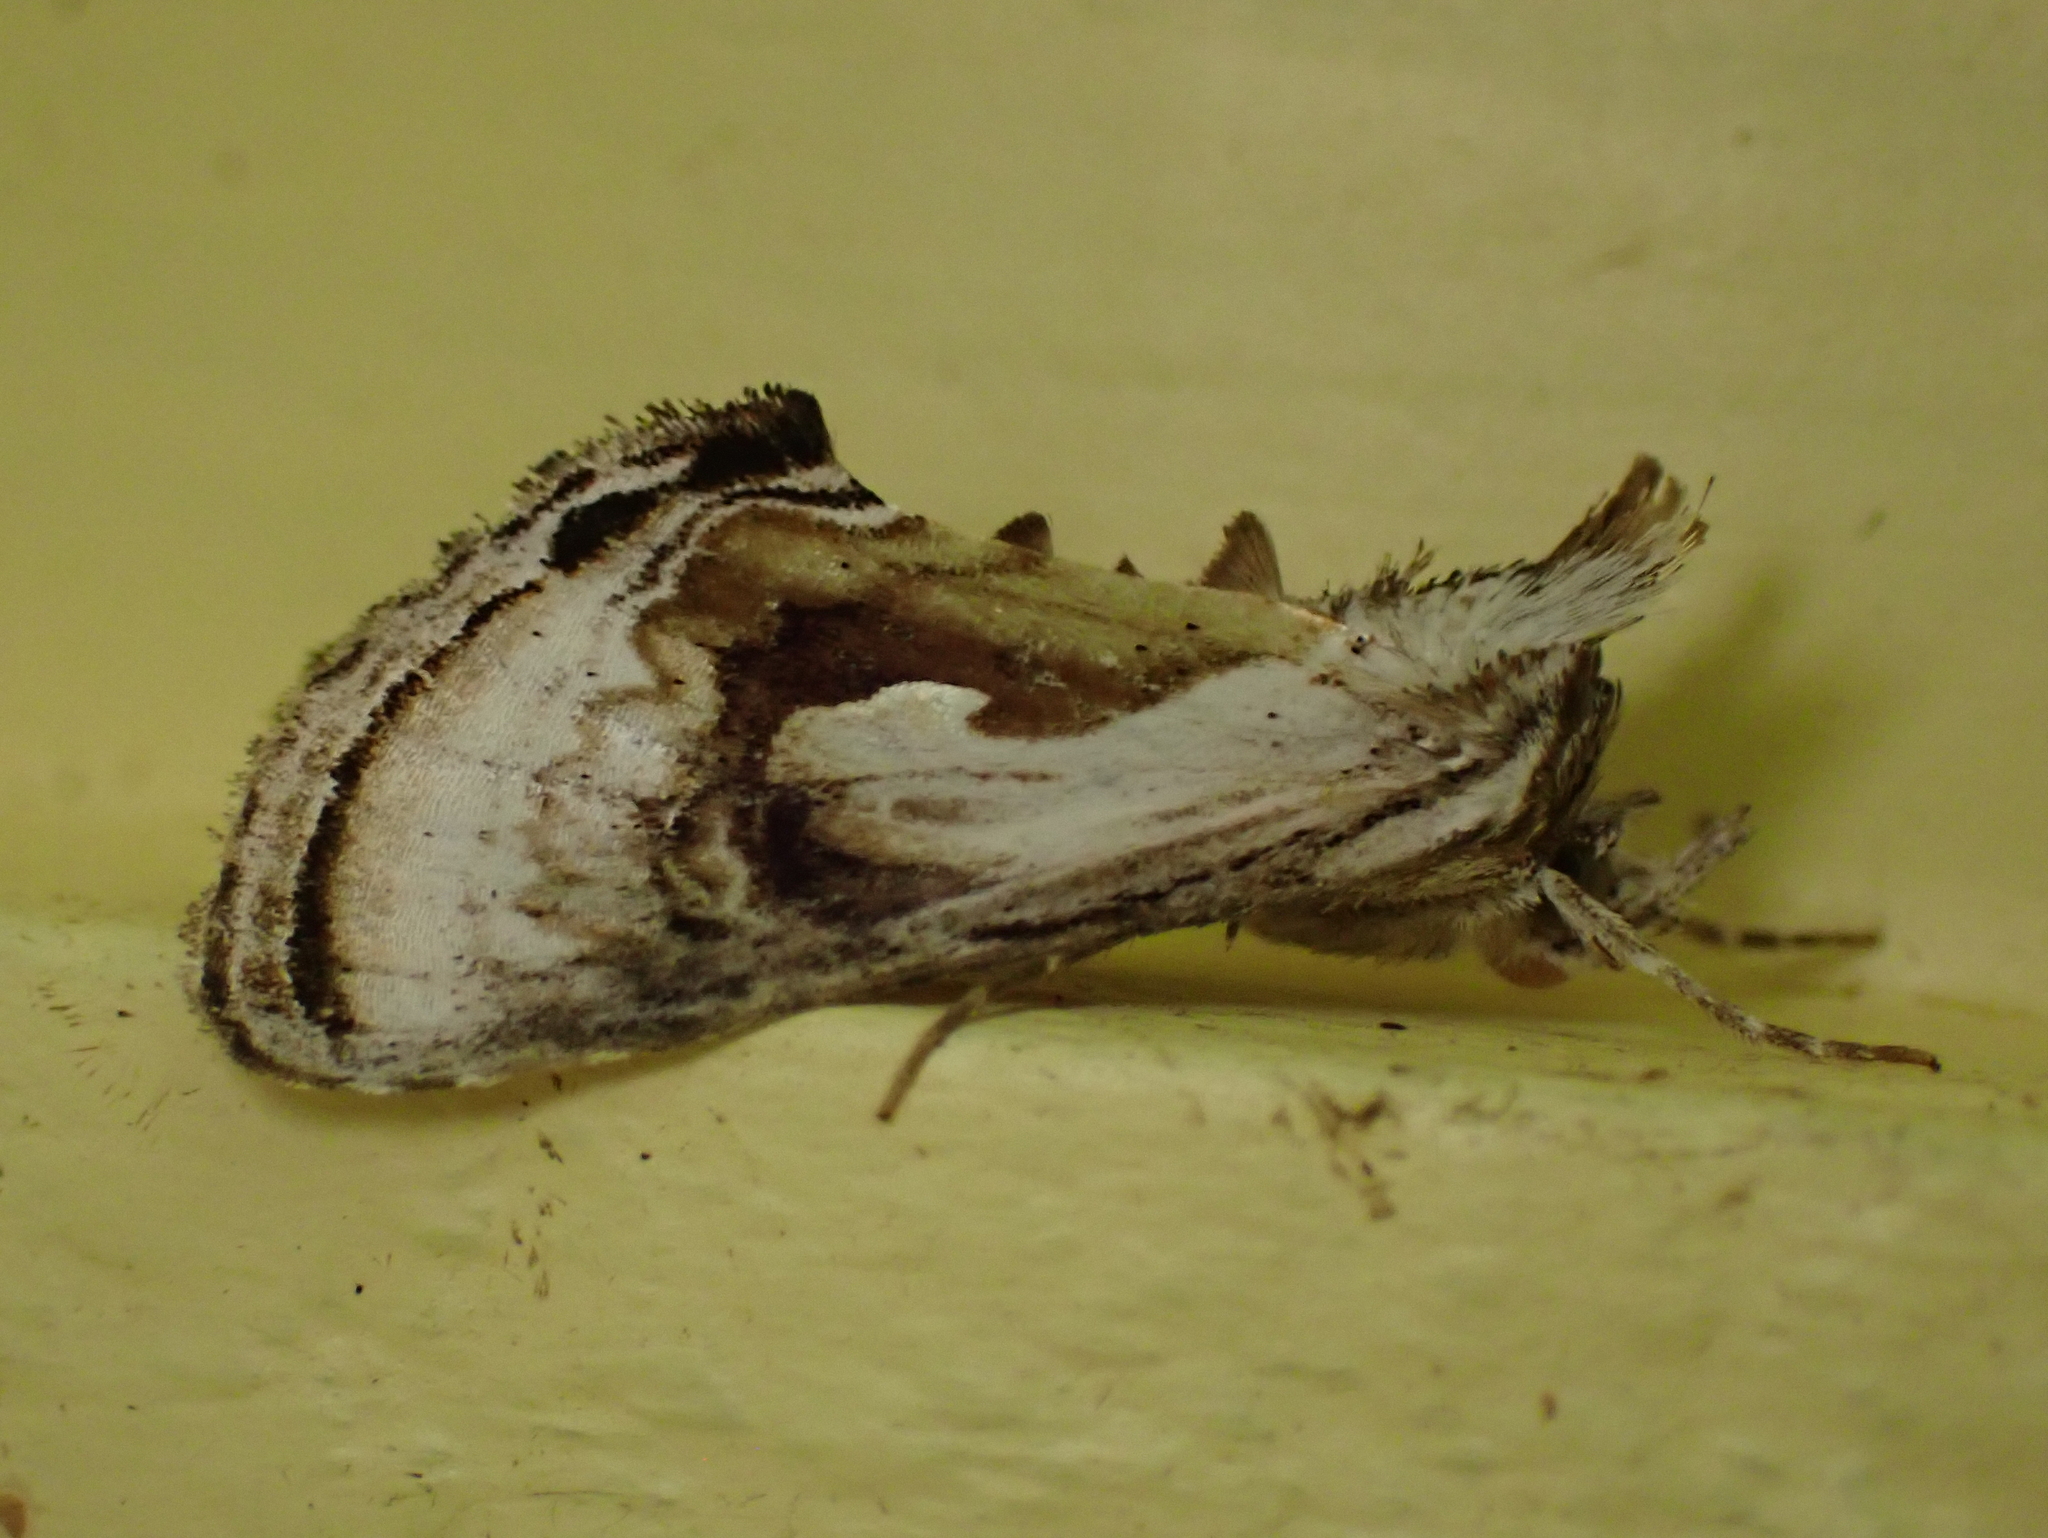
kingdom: Animalia
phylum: Arthropoda
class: Insecta
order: Lepidoptera
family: Noctuidae
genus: Chrysanympha
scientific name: Chrysanympha formosa
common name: Formosa looper moth
